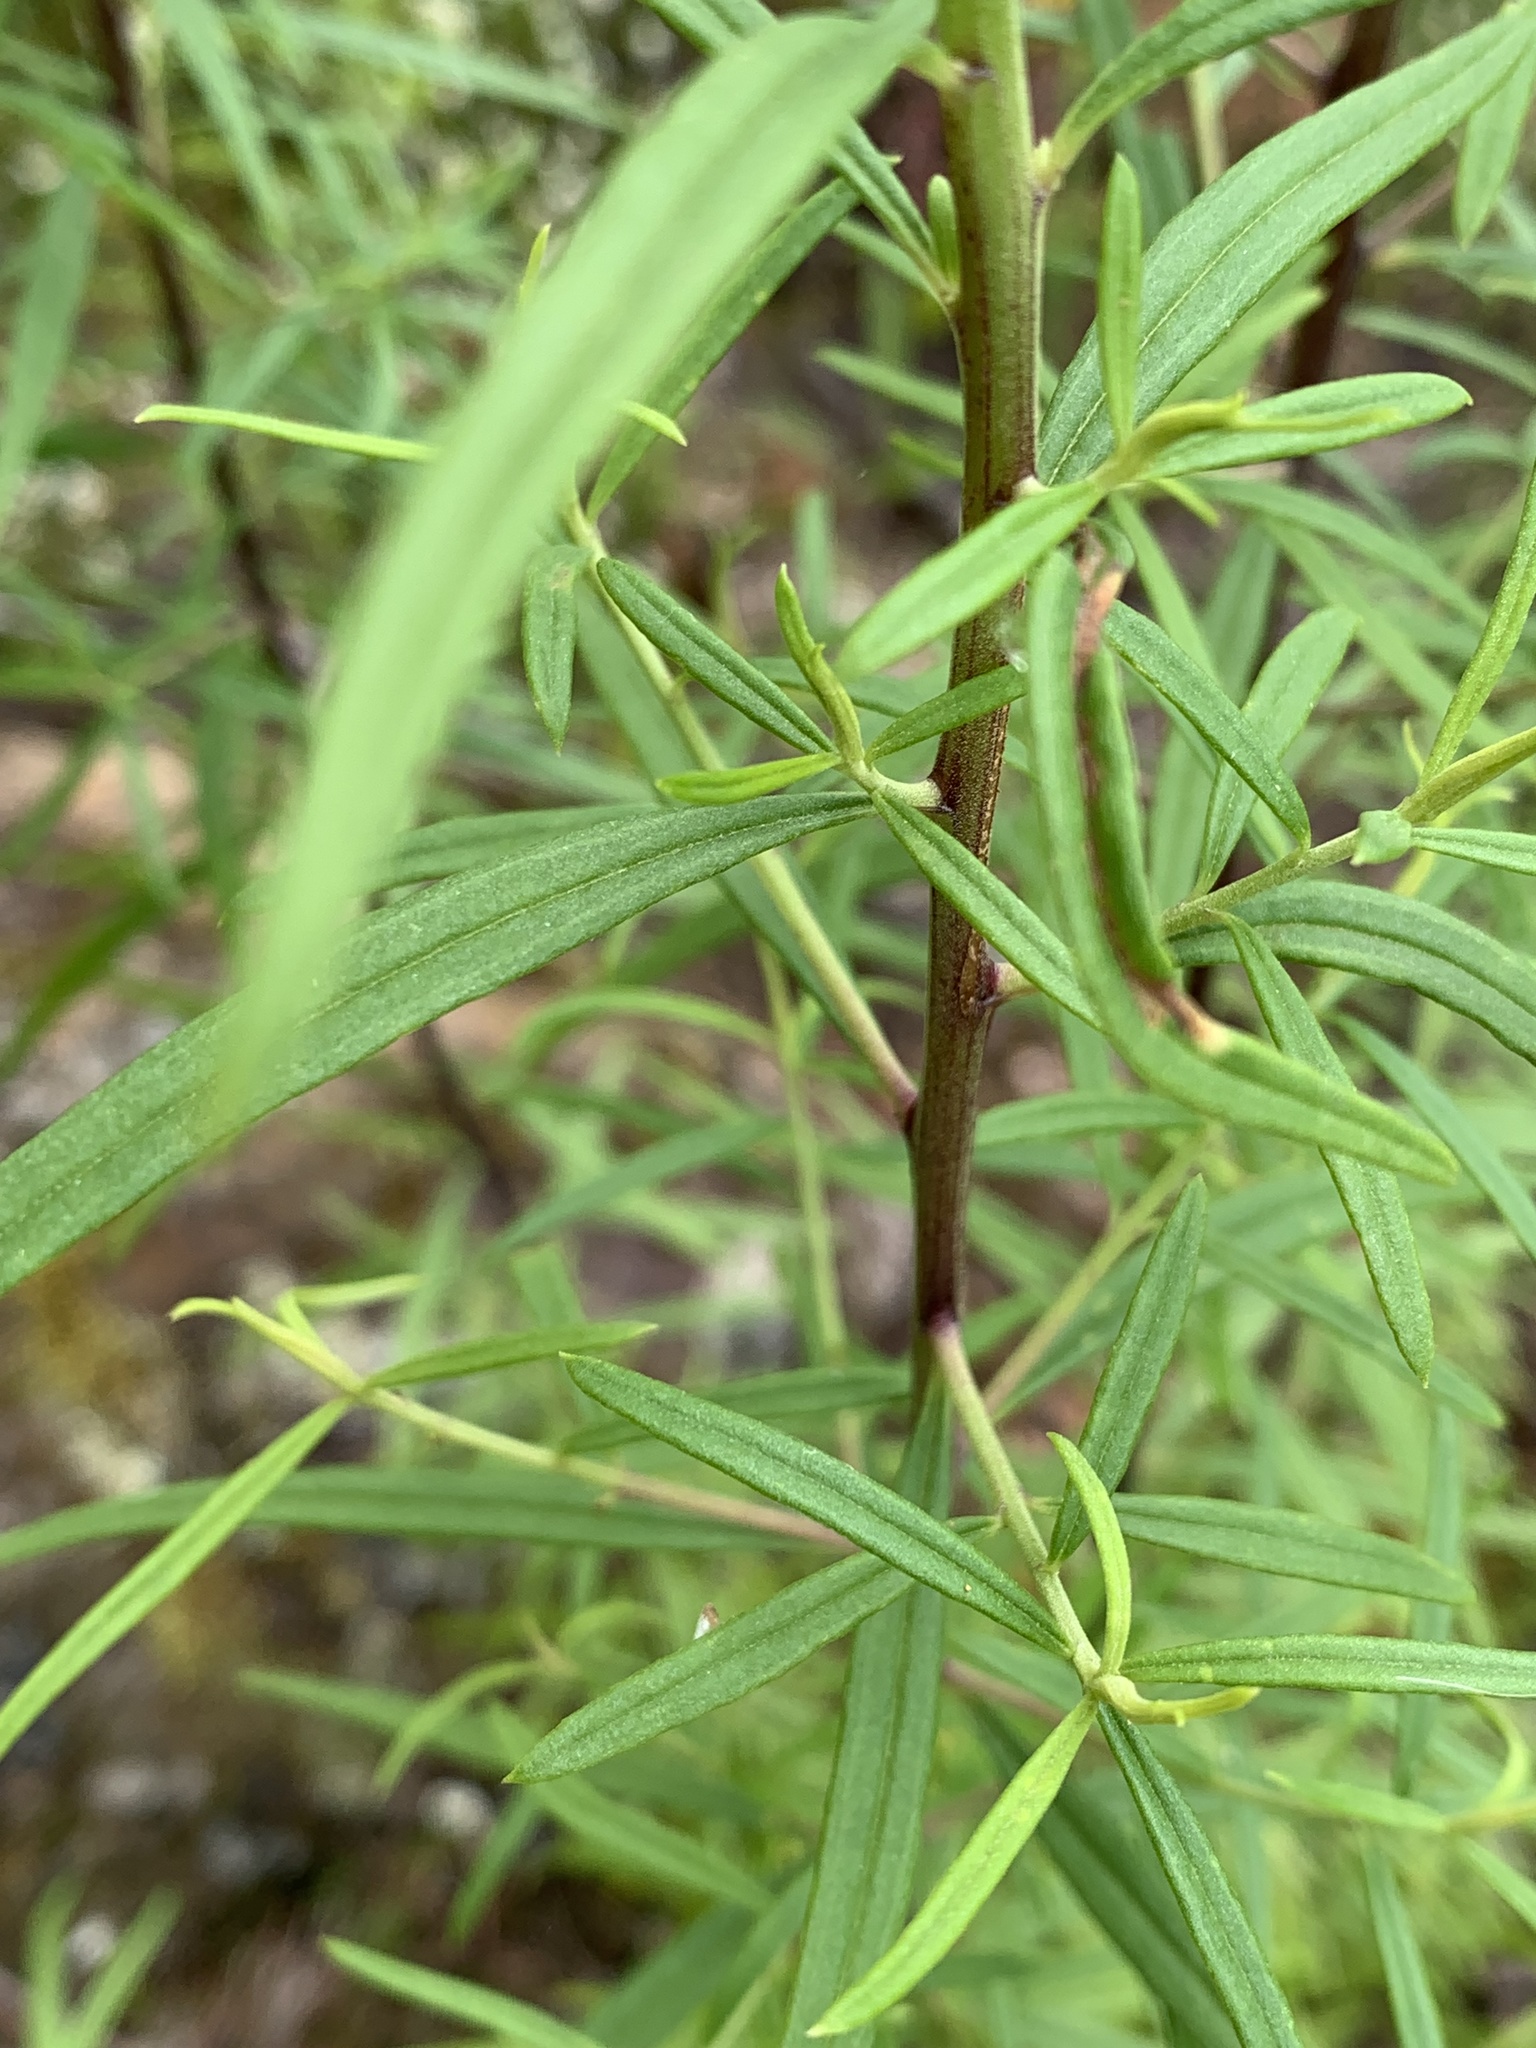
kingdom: Plantae
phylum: Tracheophyta
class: Magnoliopsida
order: Asterales
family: Asteraceae
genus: Cassinia
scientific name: Cassinia aureonitens
